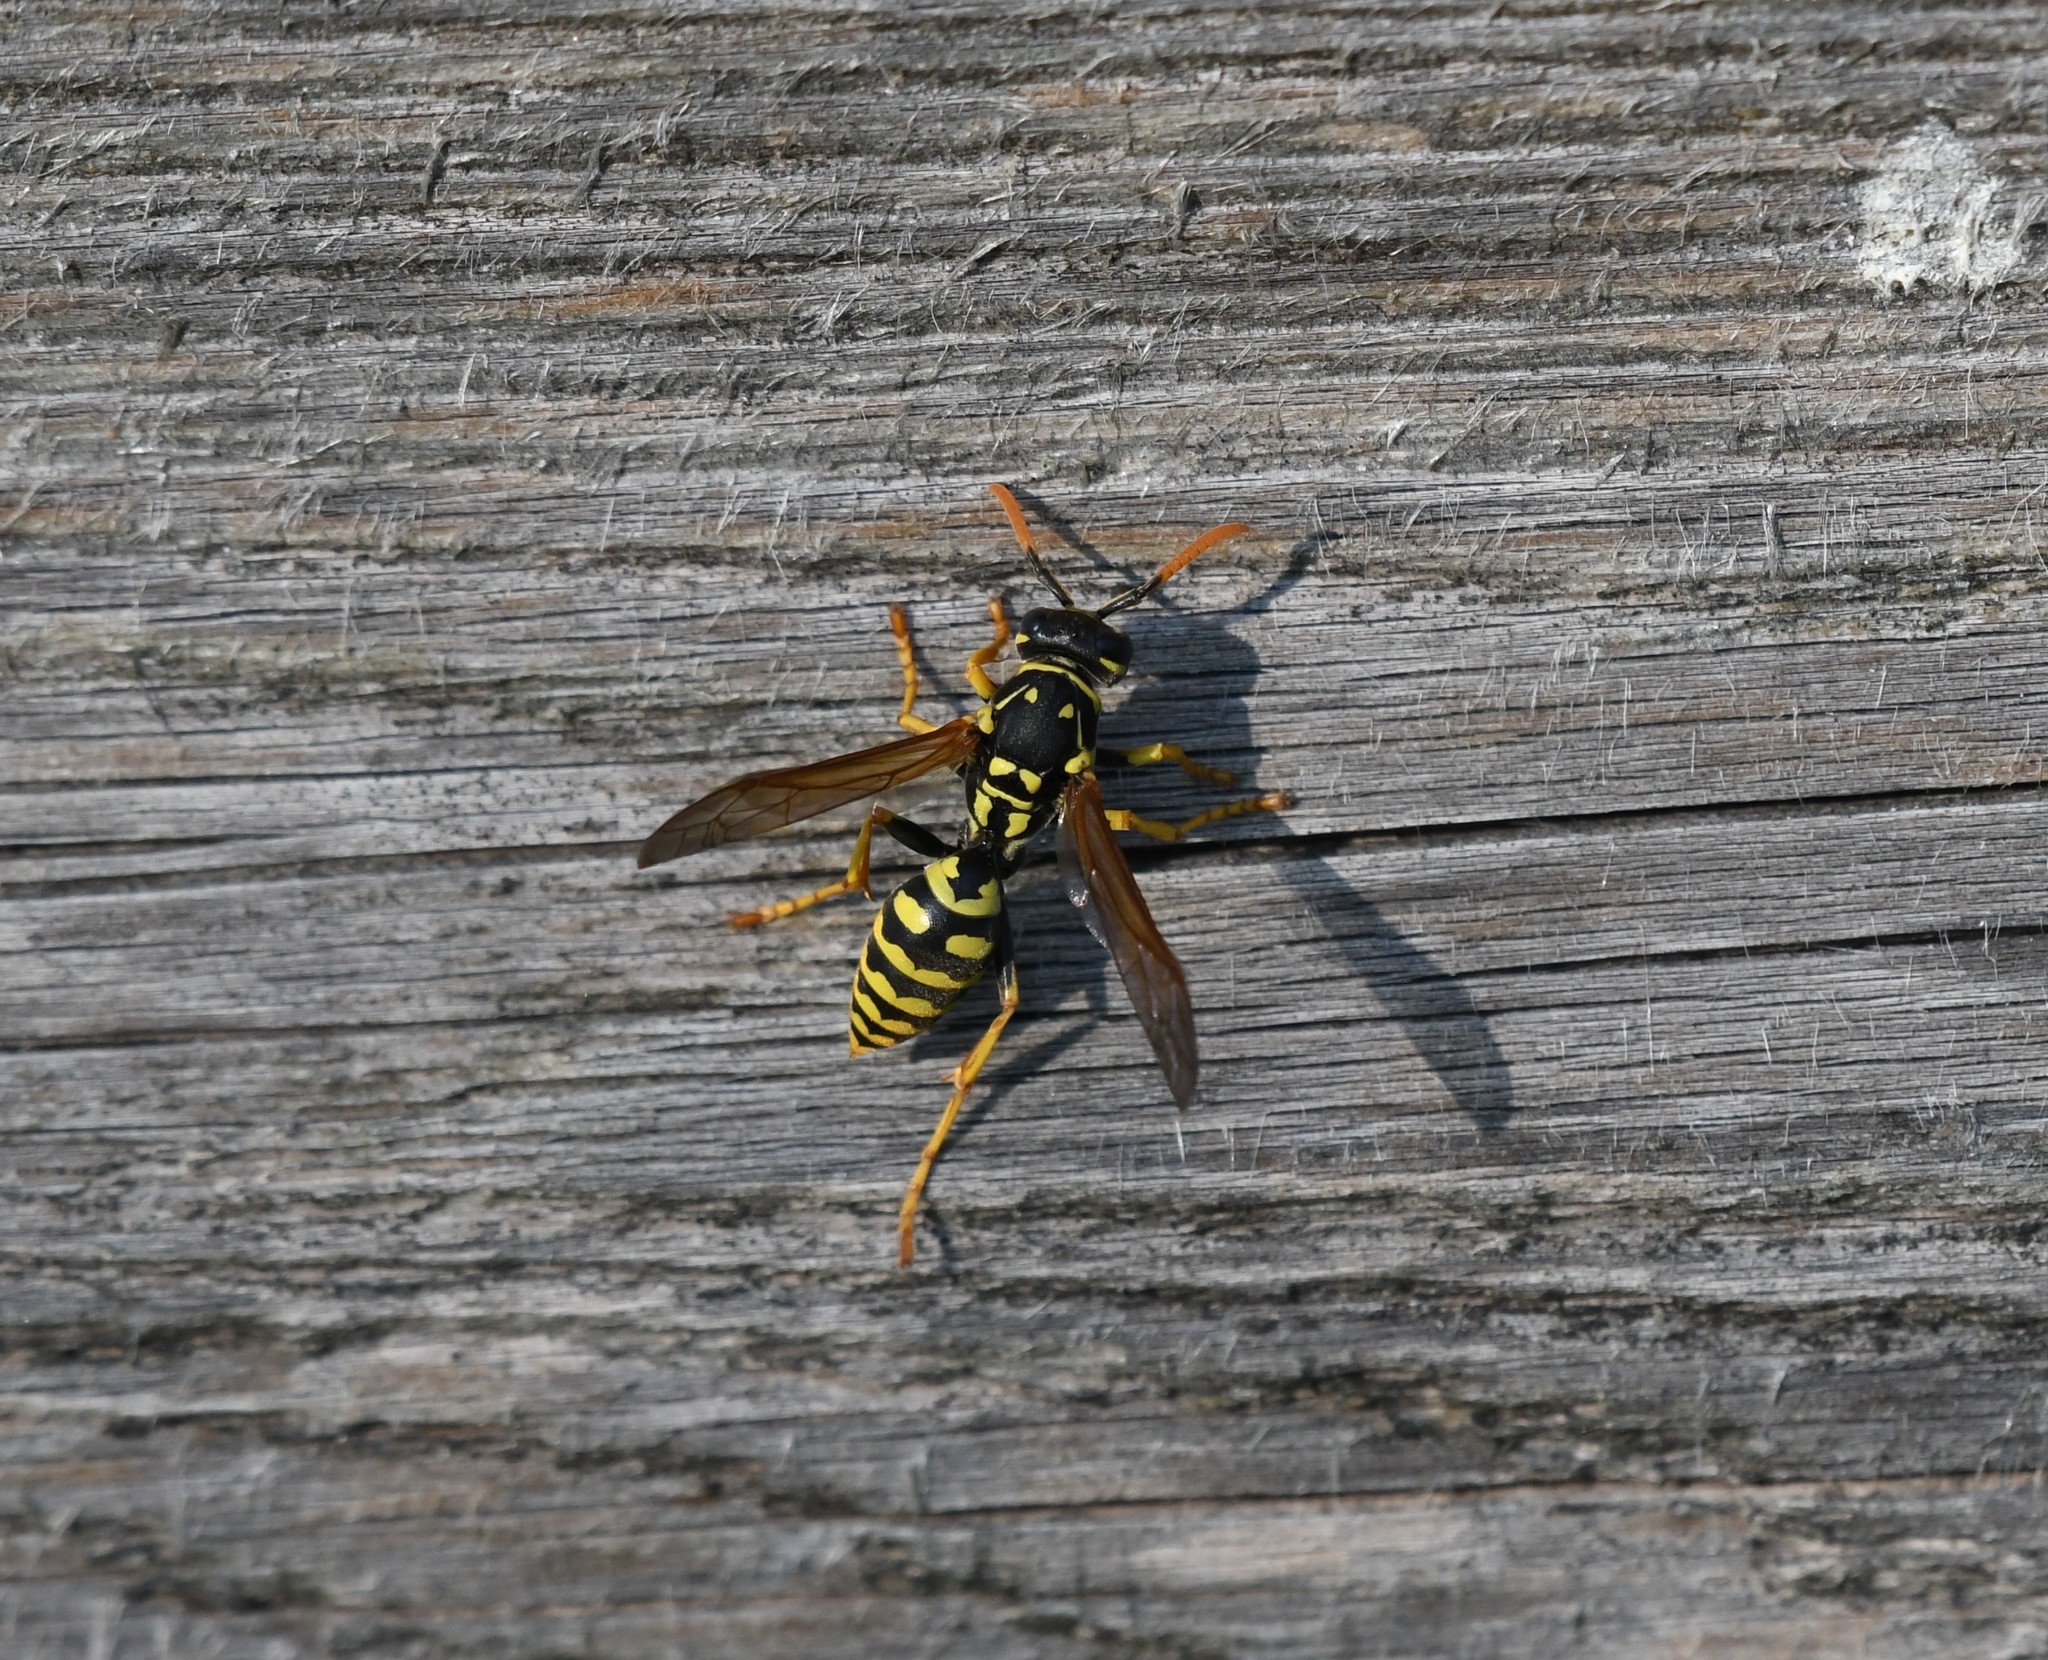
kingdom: Animalia
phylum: Arthropoda
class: Insecta
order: Hymenoptera
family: Eumenidae
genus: Polistes
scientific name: Polistes dominula
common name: Paper wasp
